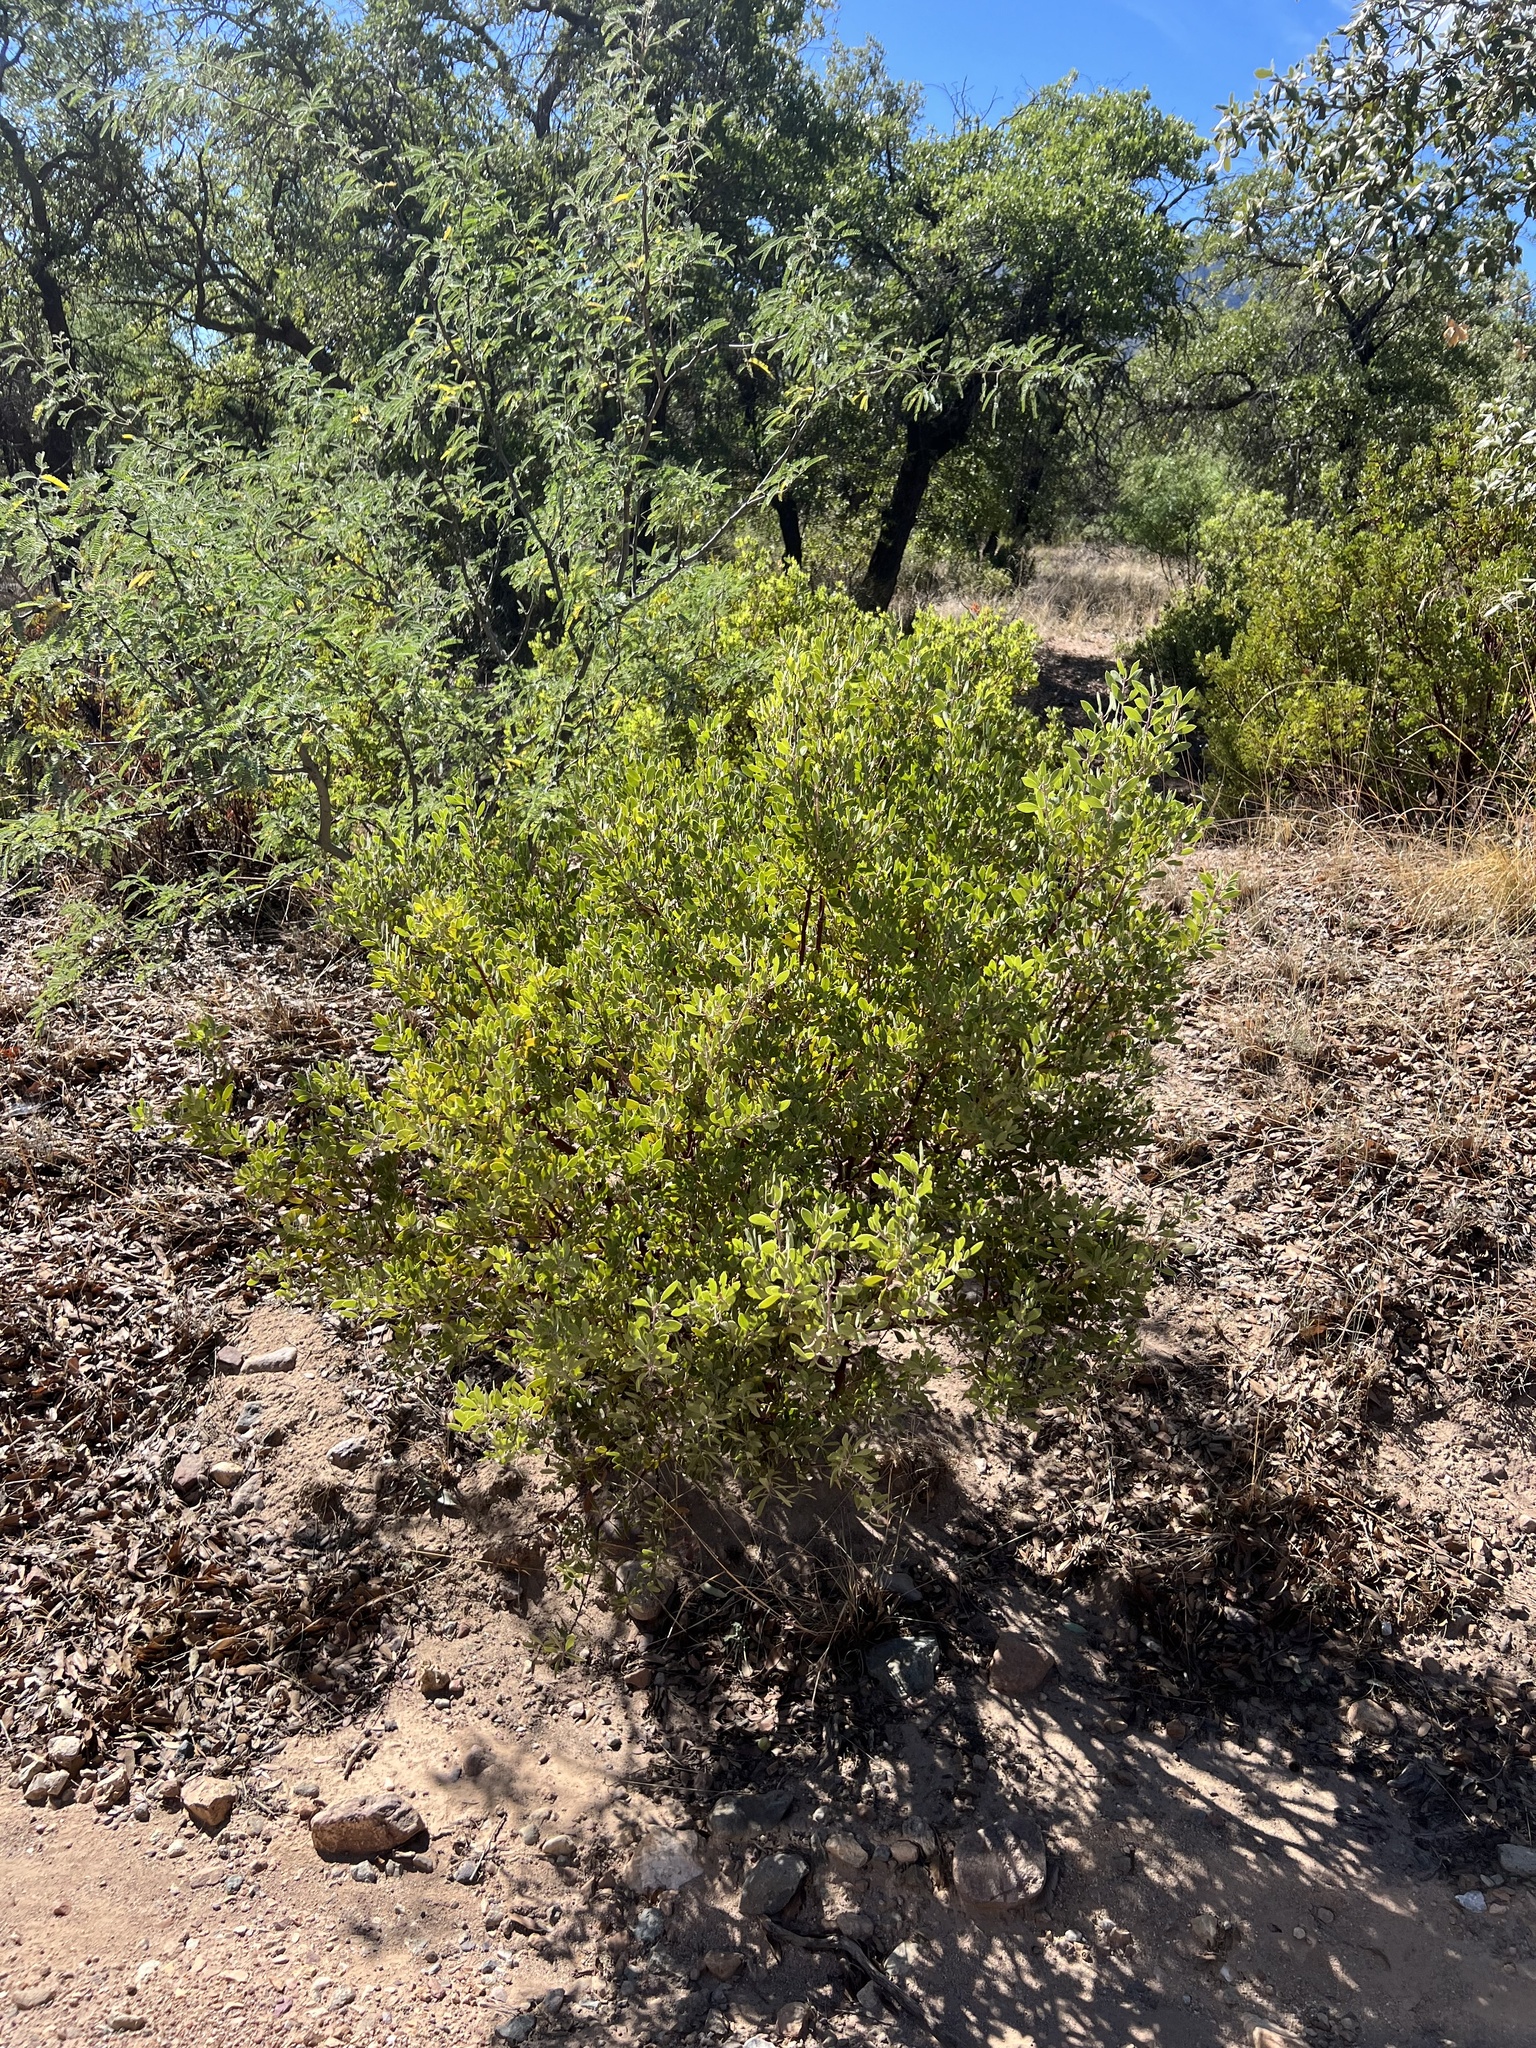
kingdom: Plantae
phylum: Tracheophyta
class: Magnoliopsida
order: Ericales
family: Ericaceae
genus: Arctostaphylos
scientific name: Arctostaphylos pungens
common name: Mexican manzanita
